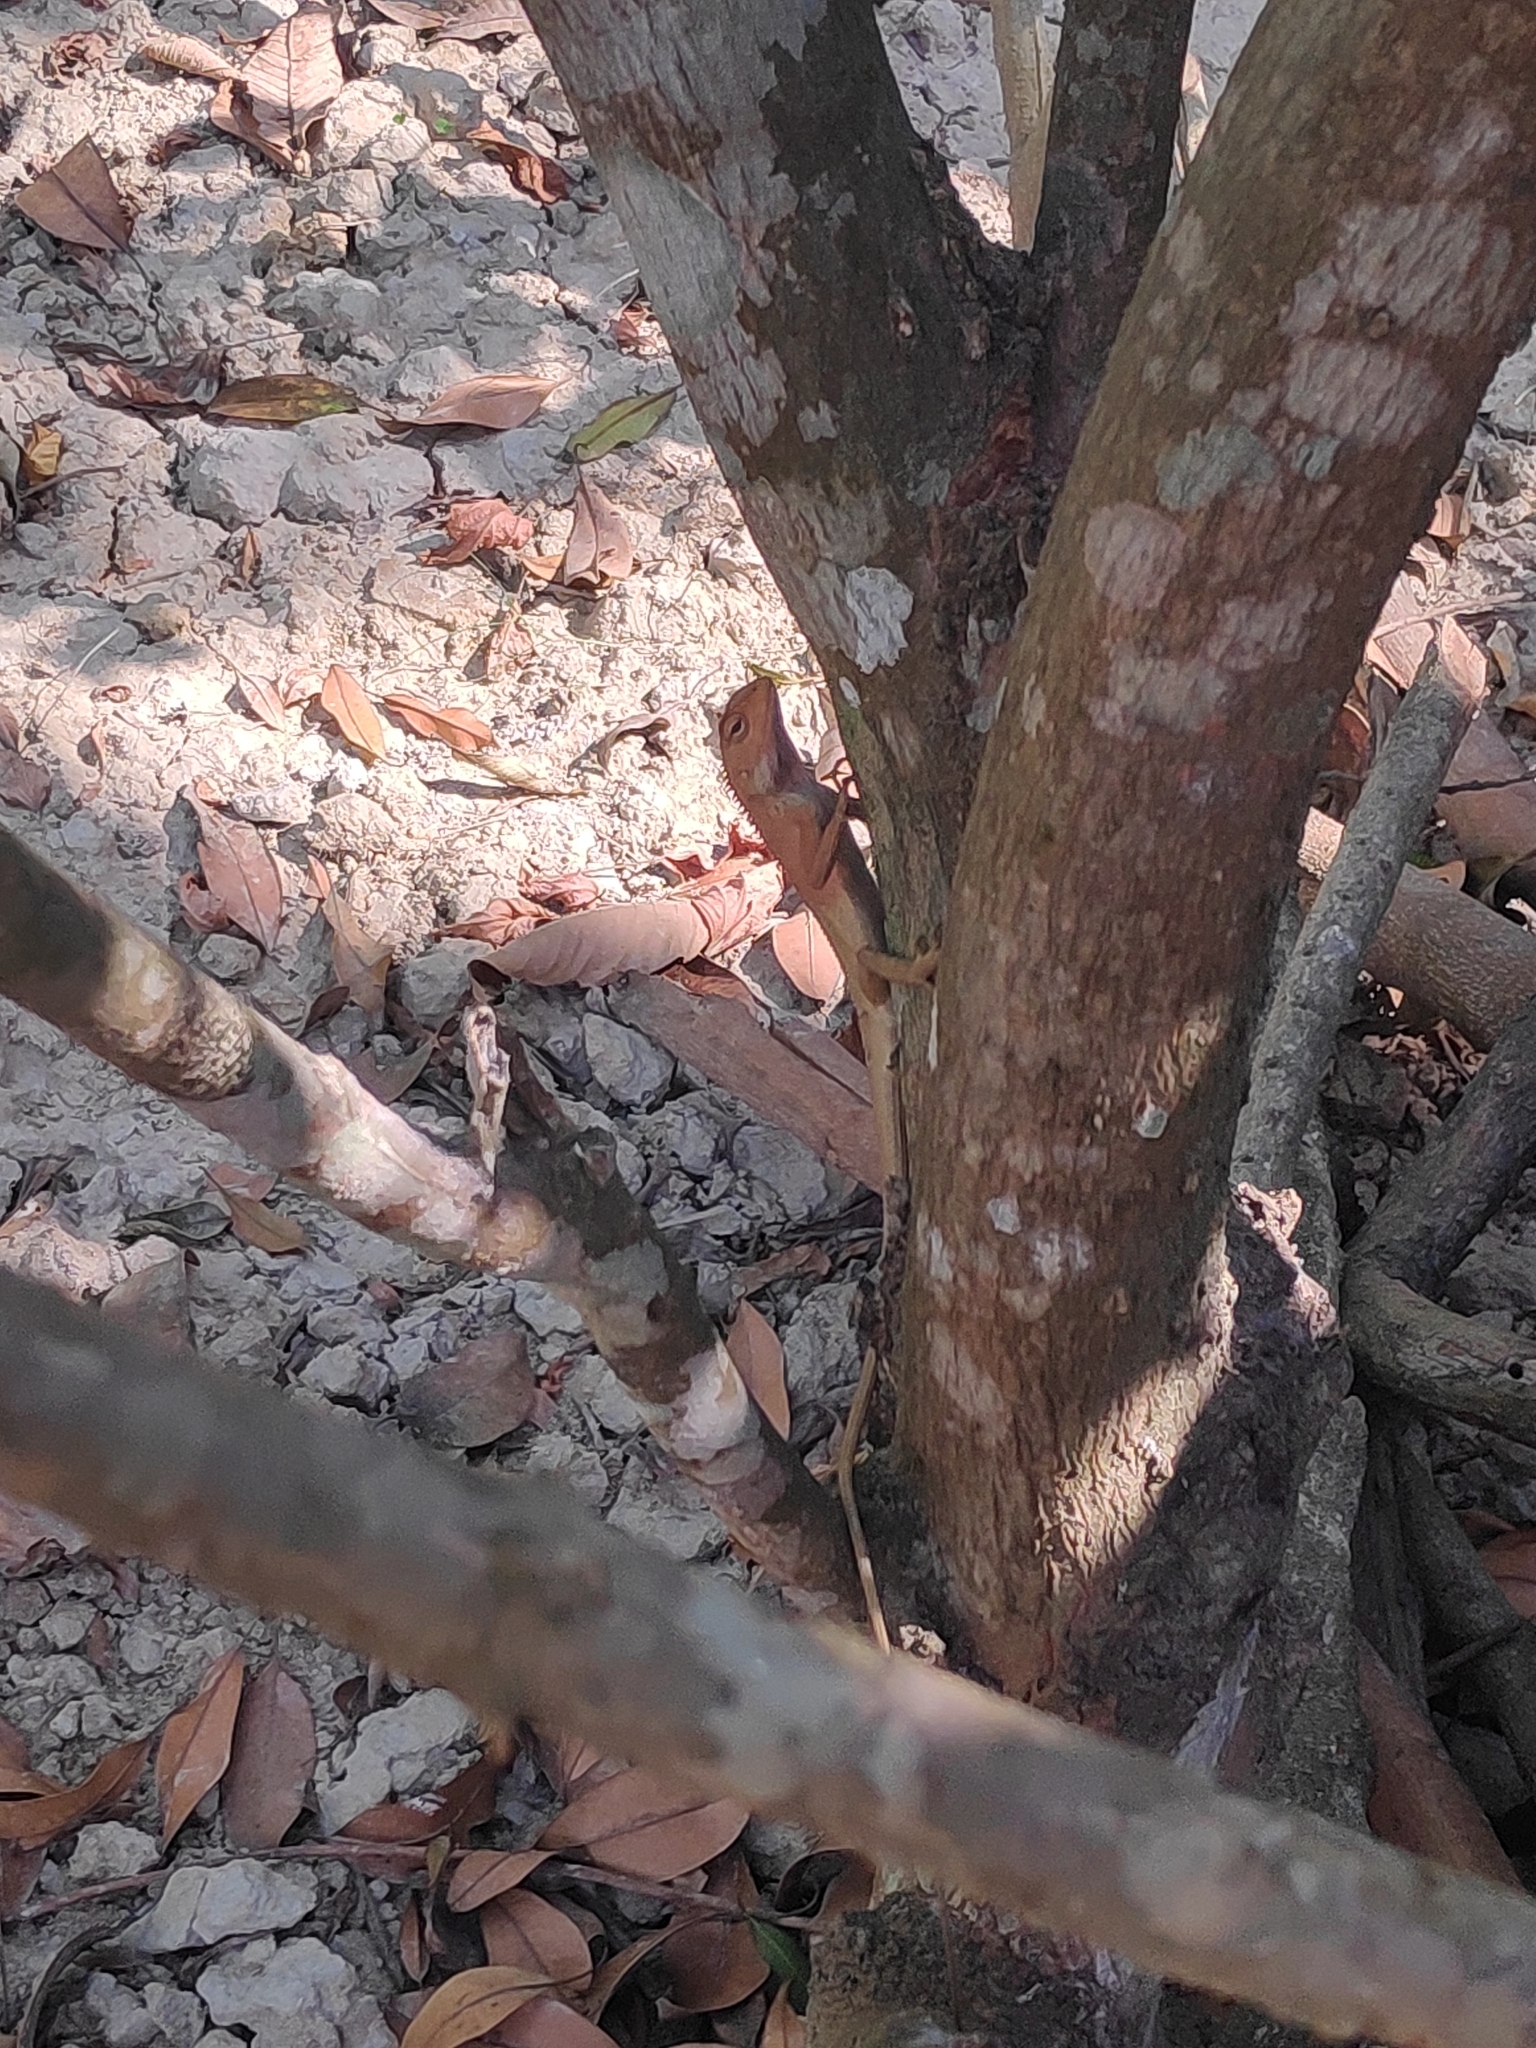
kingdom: Animalia
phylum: Chordata
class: Squamata
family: Agamidae
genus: Calotes
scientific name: Calotes versicolor
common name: Oriental garden lizard
